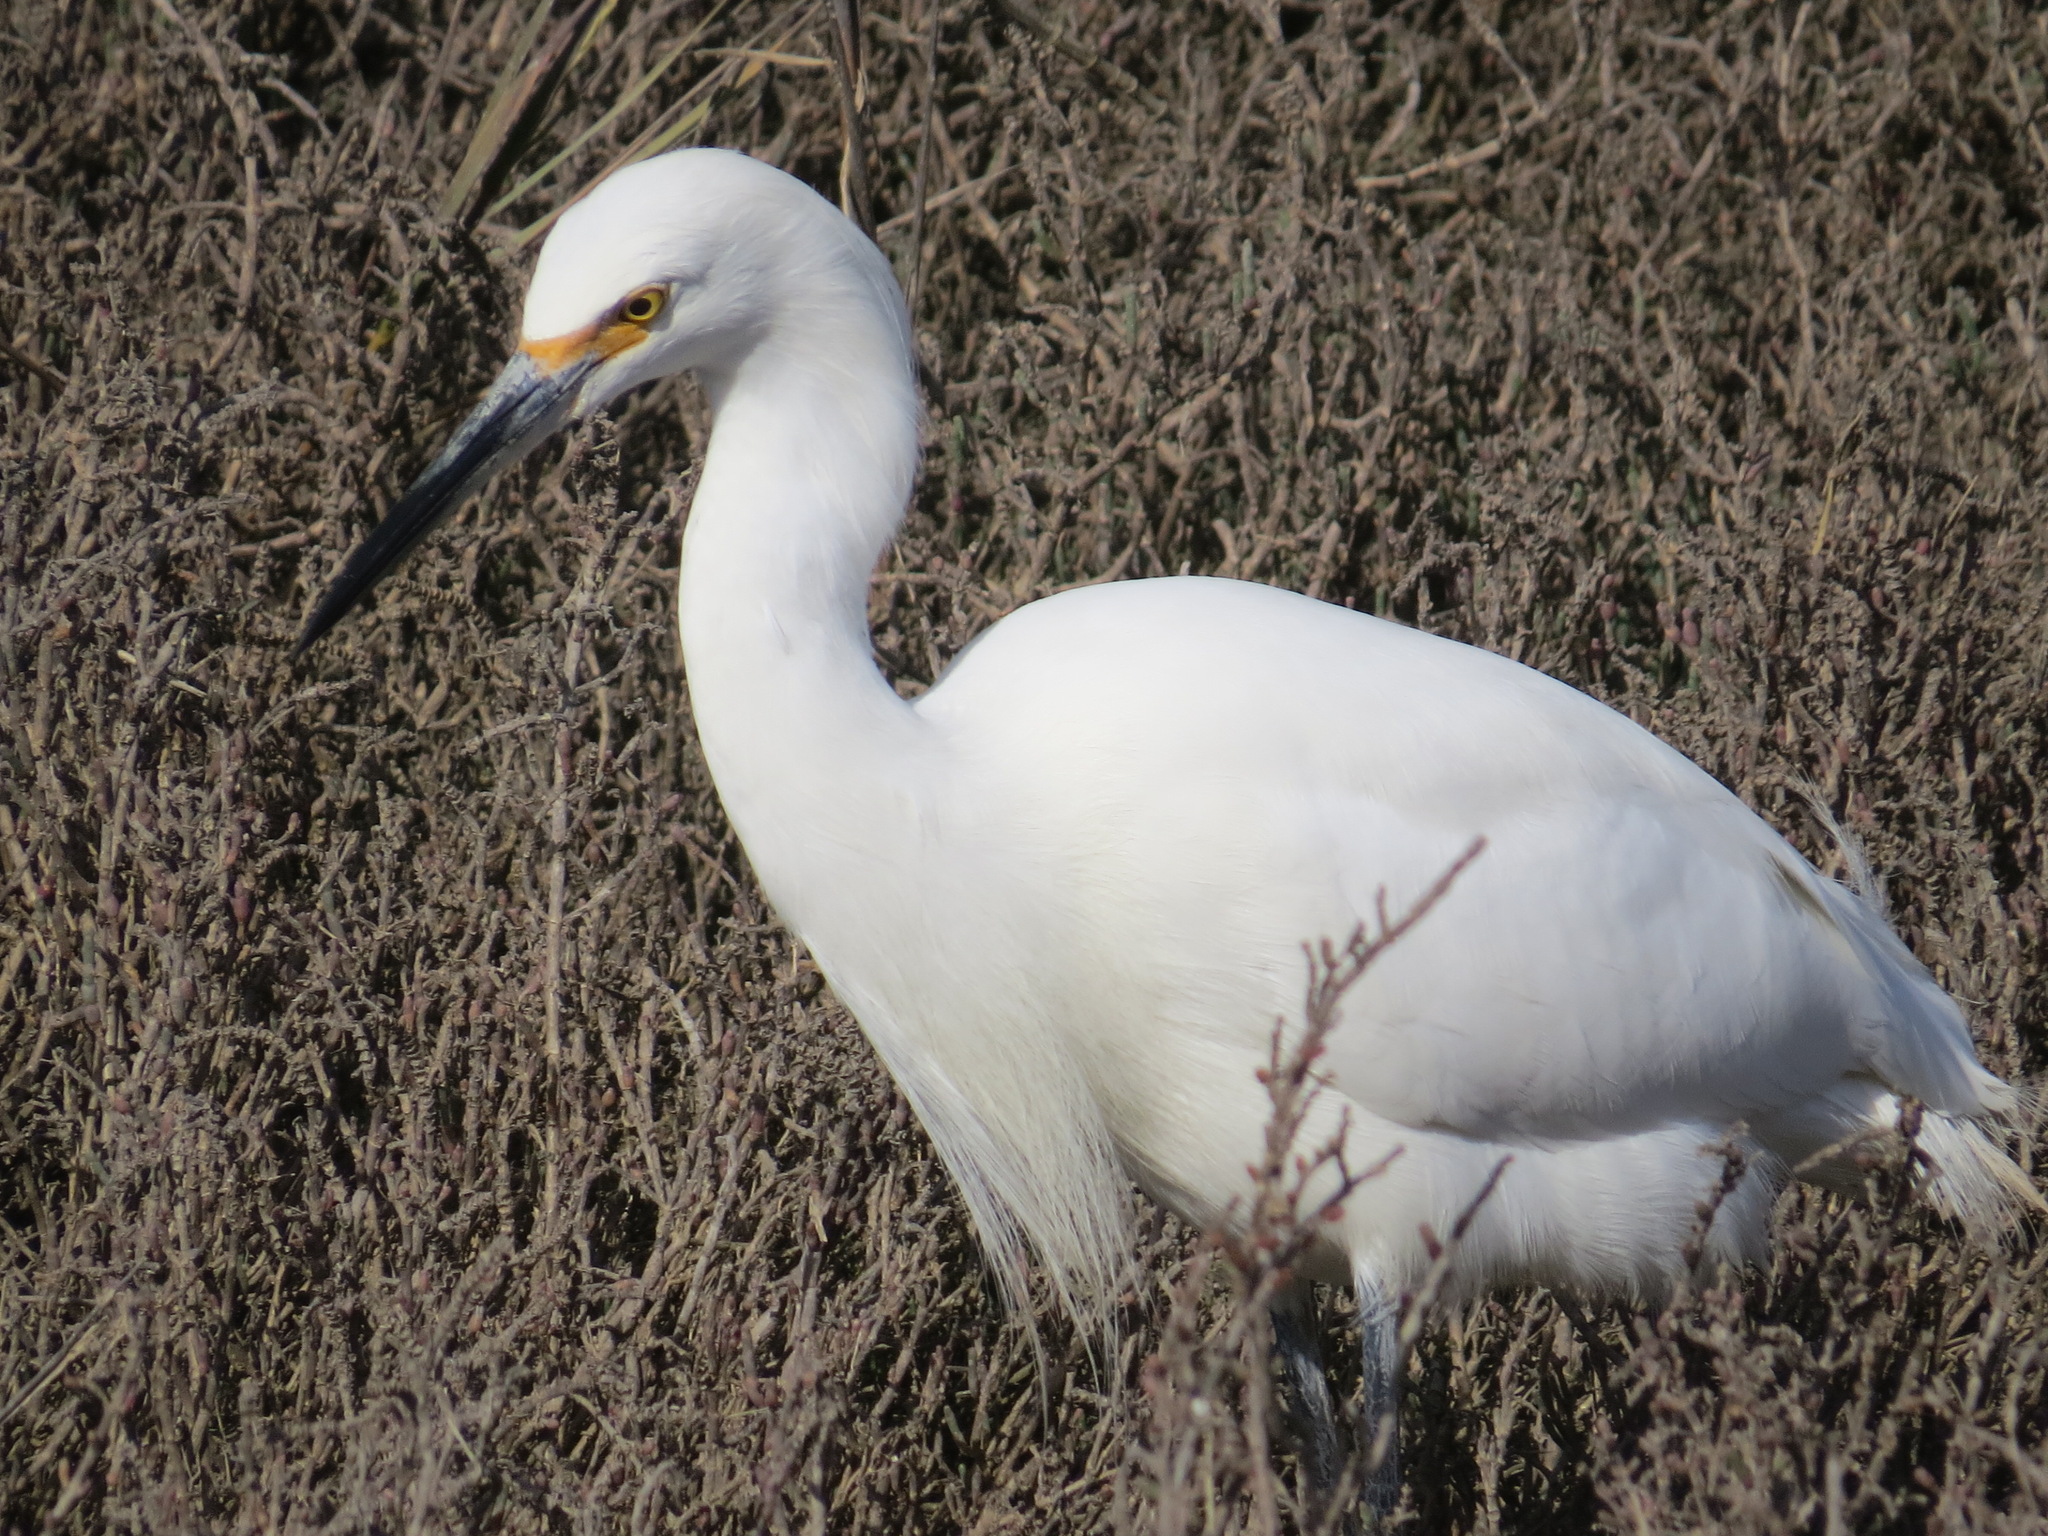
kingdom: Animalia
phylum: Chordata
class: Aves
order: Pelecaniformes
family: Ardeidae
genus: Egretta
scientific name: Egretta thula
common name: Snowy egret
